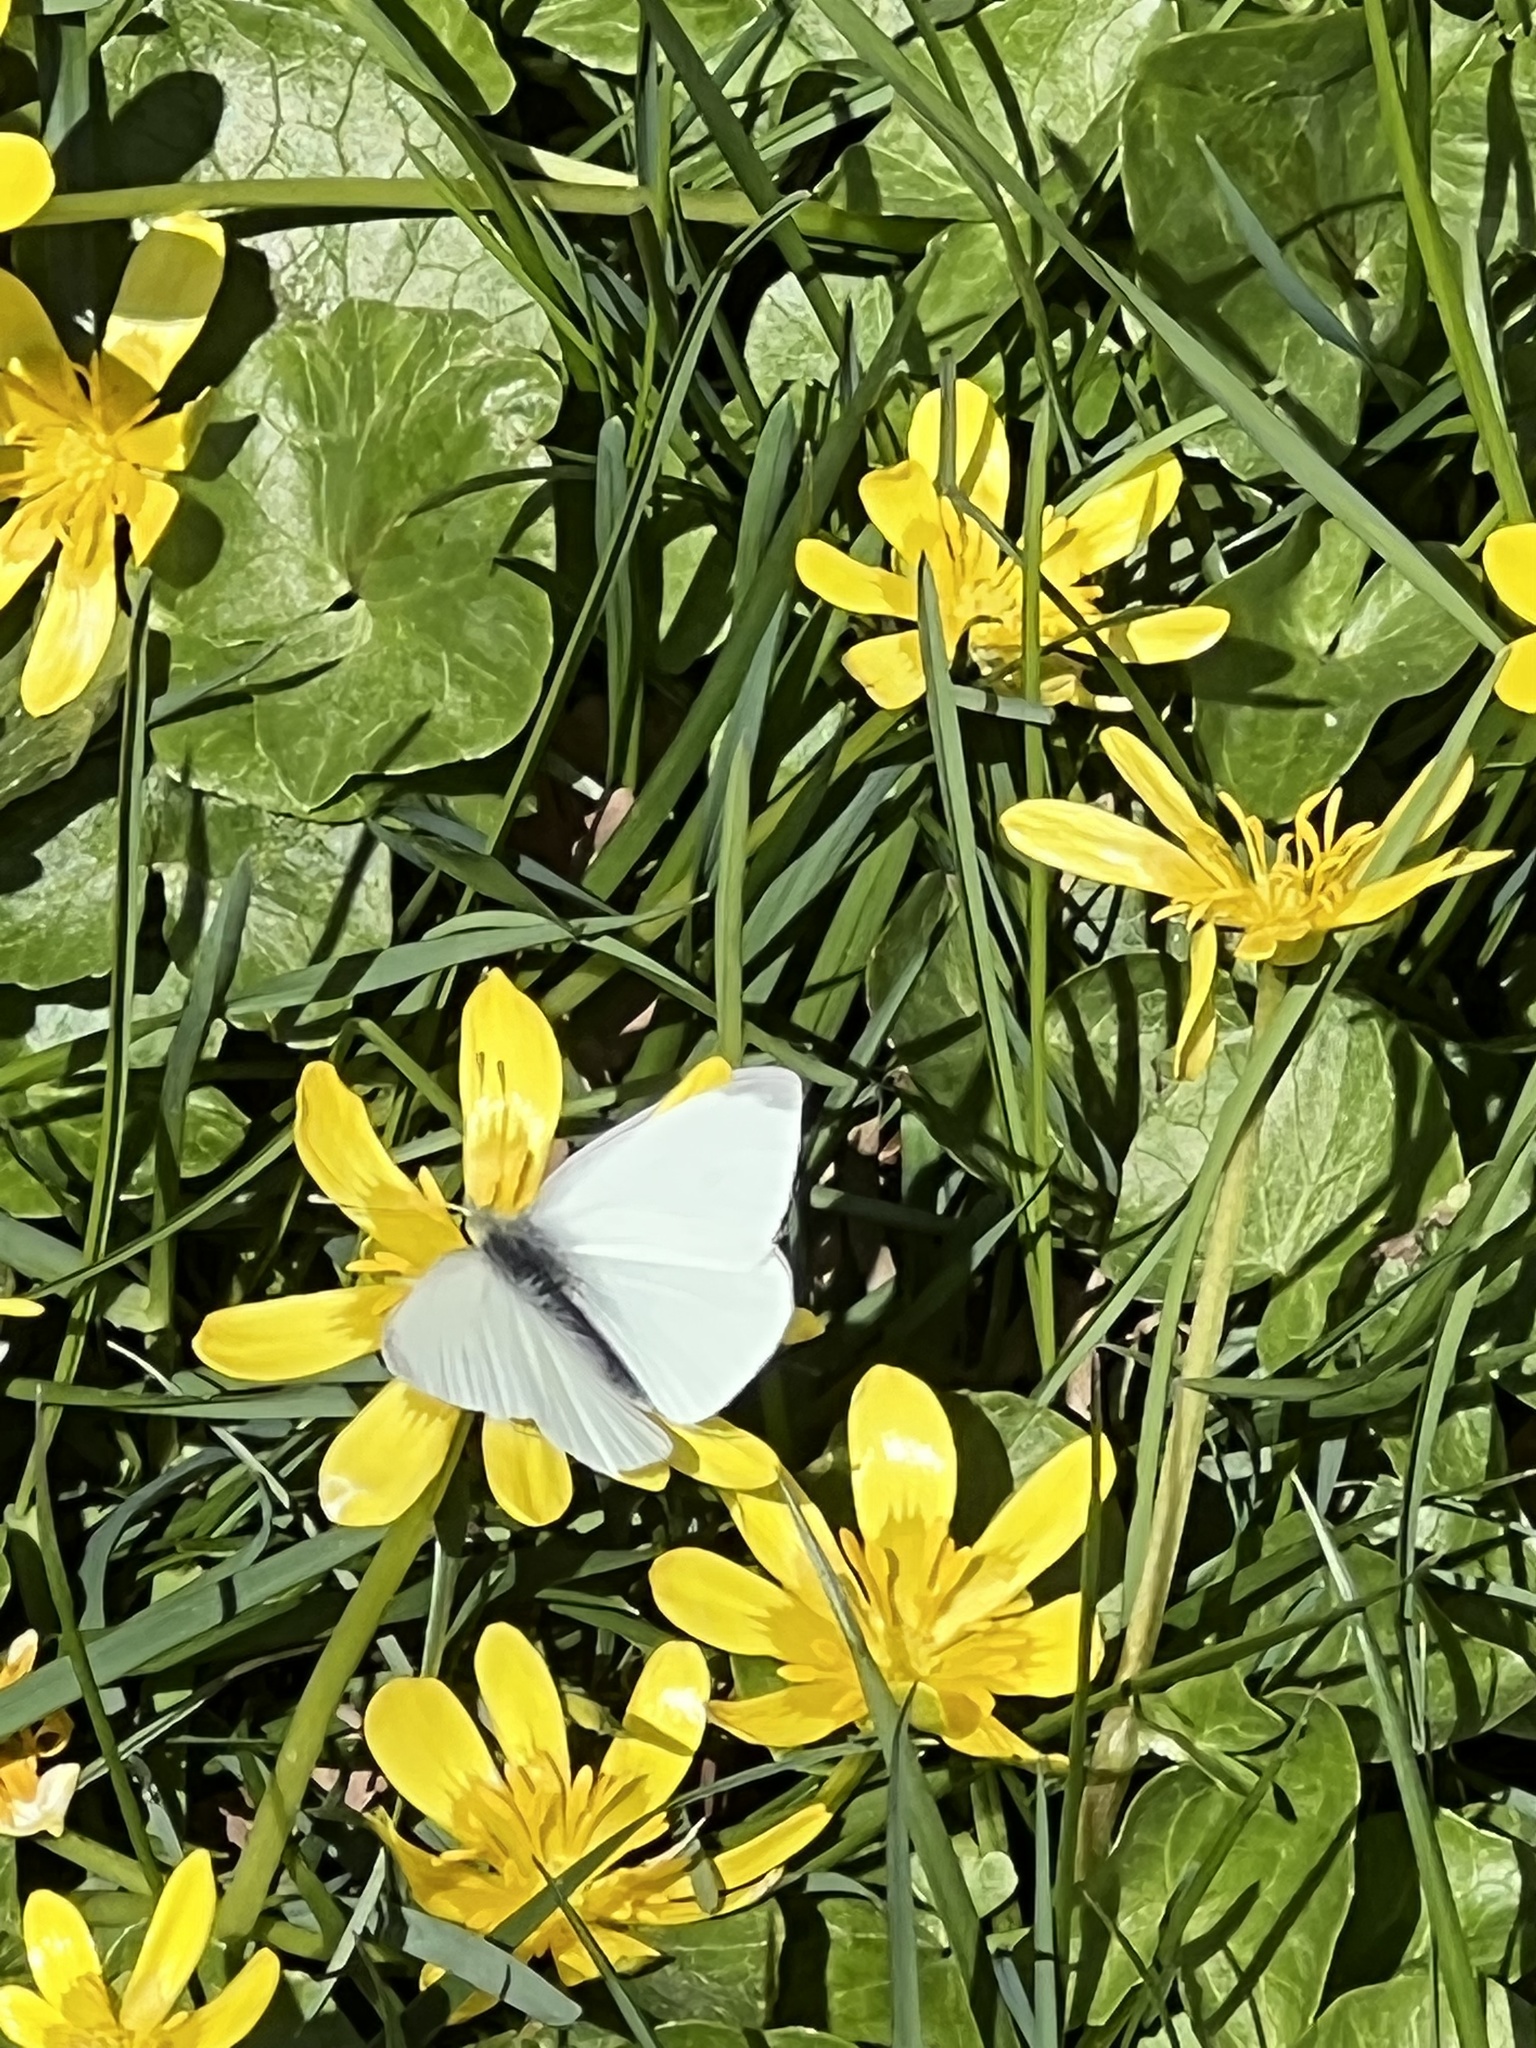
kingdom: Animalia
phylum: Arthropoda
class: Insecta
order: Lepidoptera
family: Pieridae
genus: Pieris
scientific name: Pieris rapae
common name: Small white
